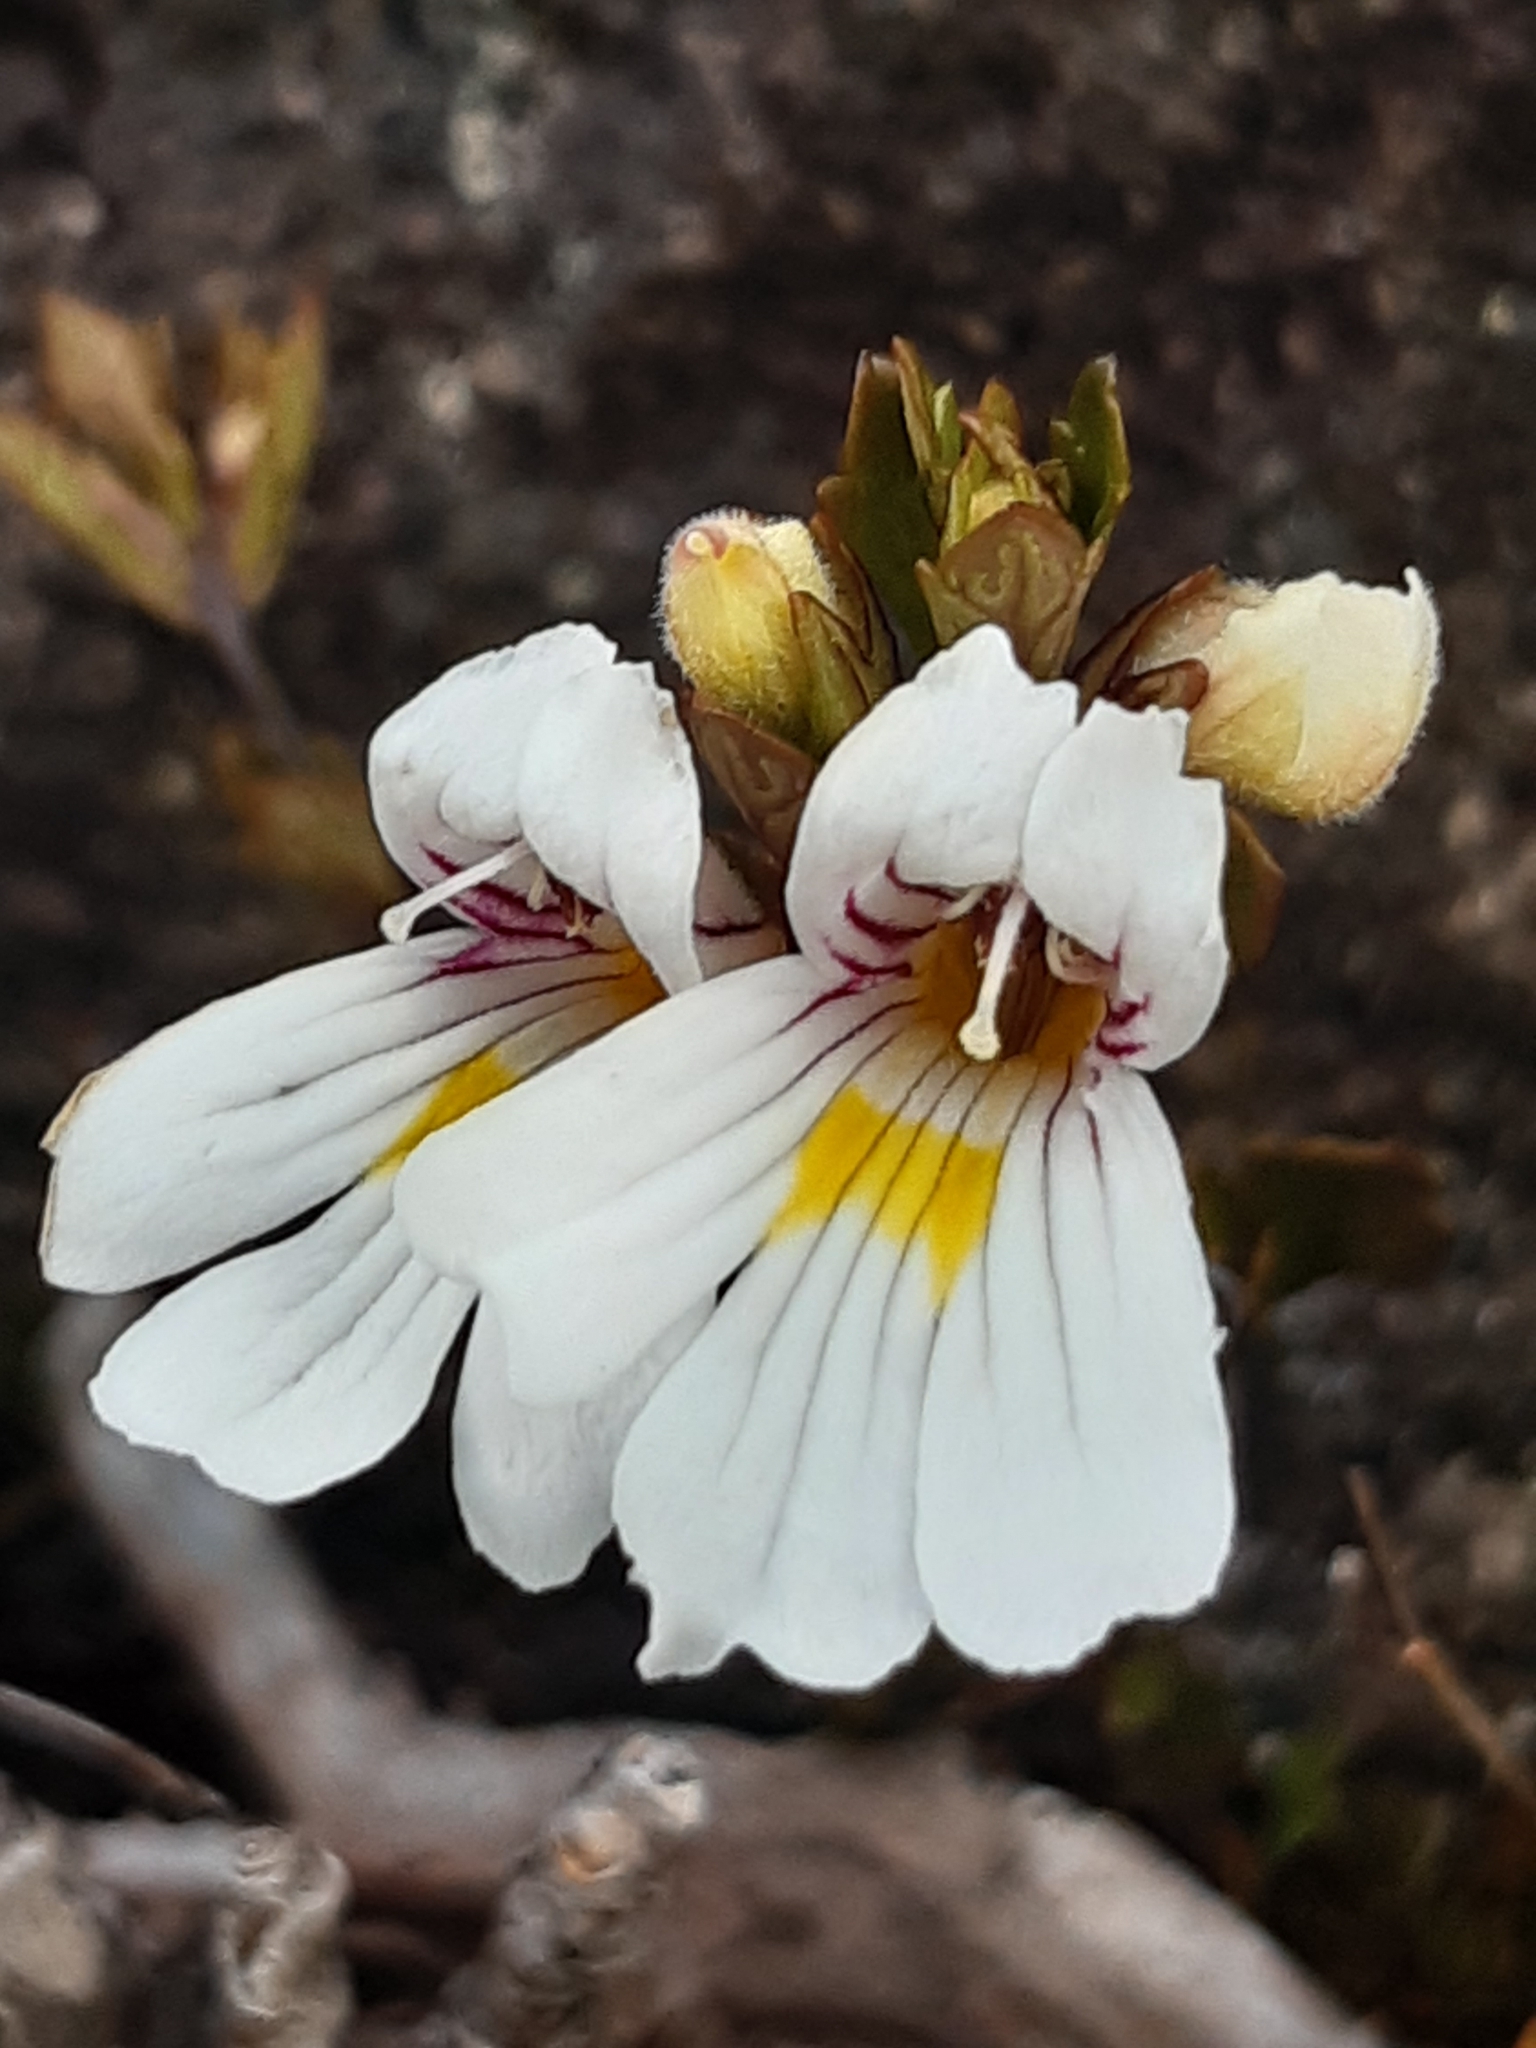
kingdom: Plantae
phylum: Tracheophyta
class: Magnoliopsida
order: Lamiales
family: Orobanchaceae
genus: Euphrasia
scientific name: Euphrasia cuneata
